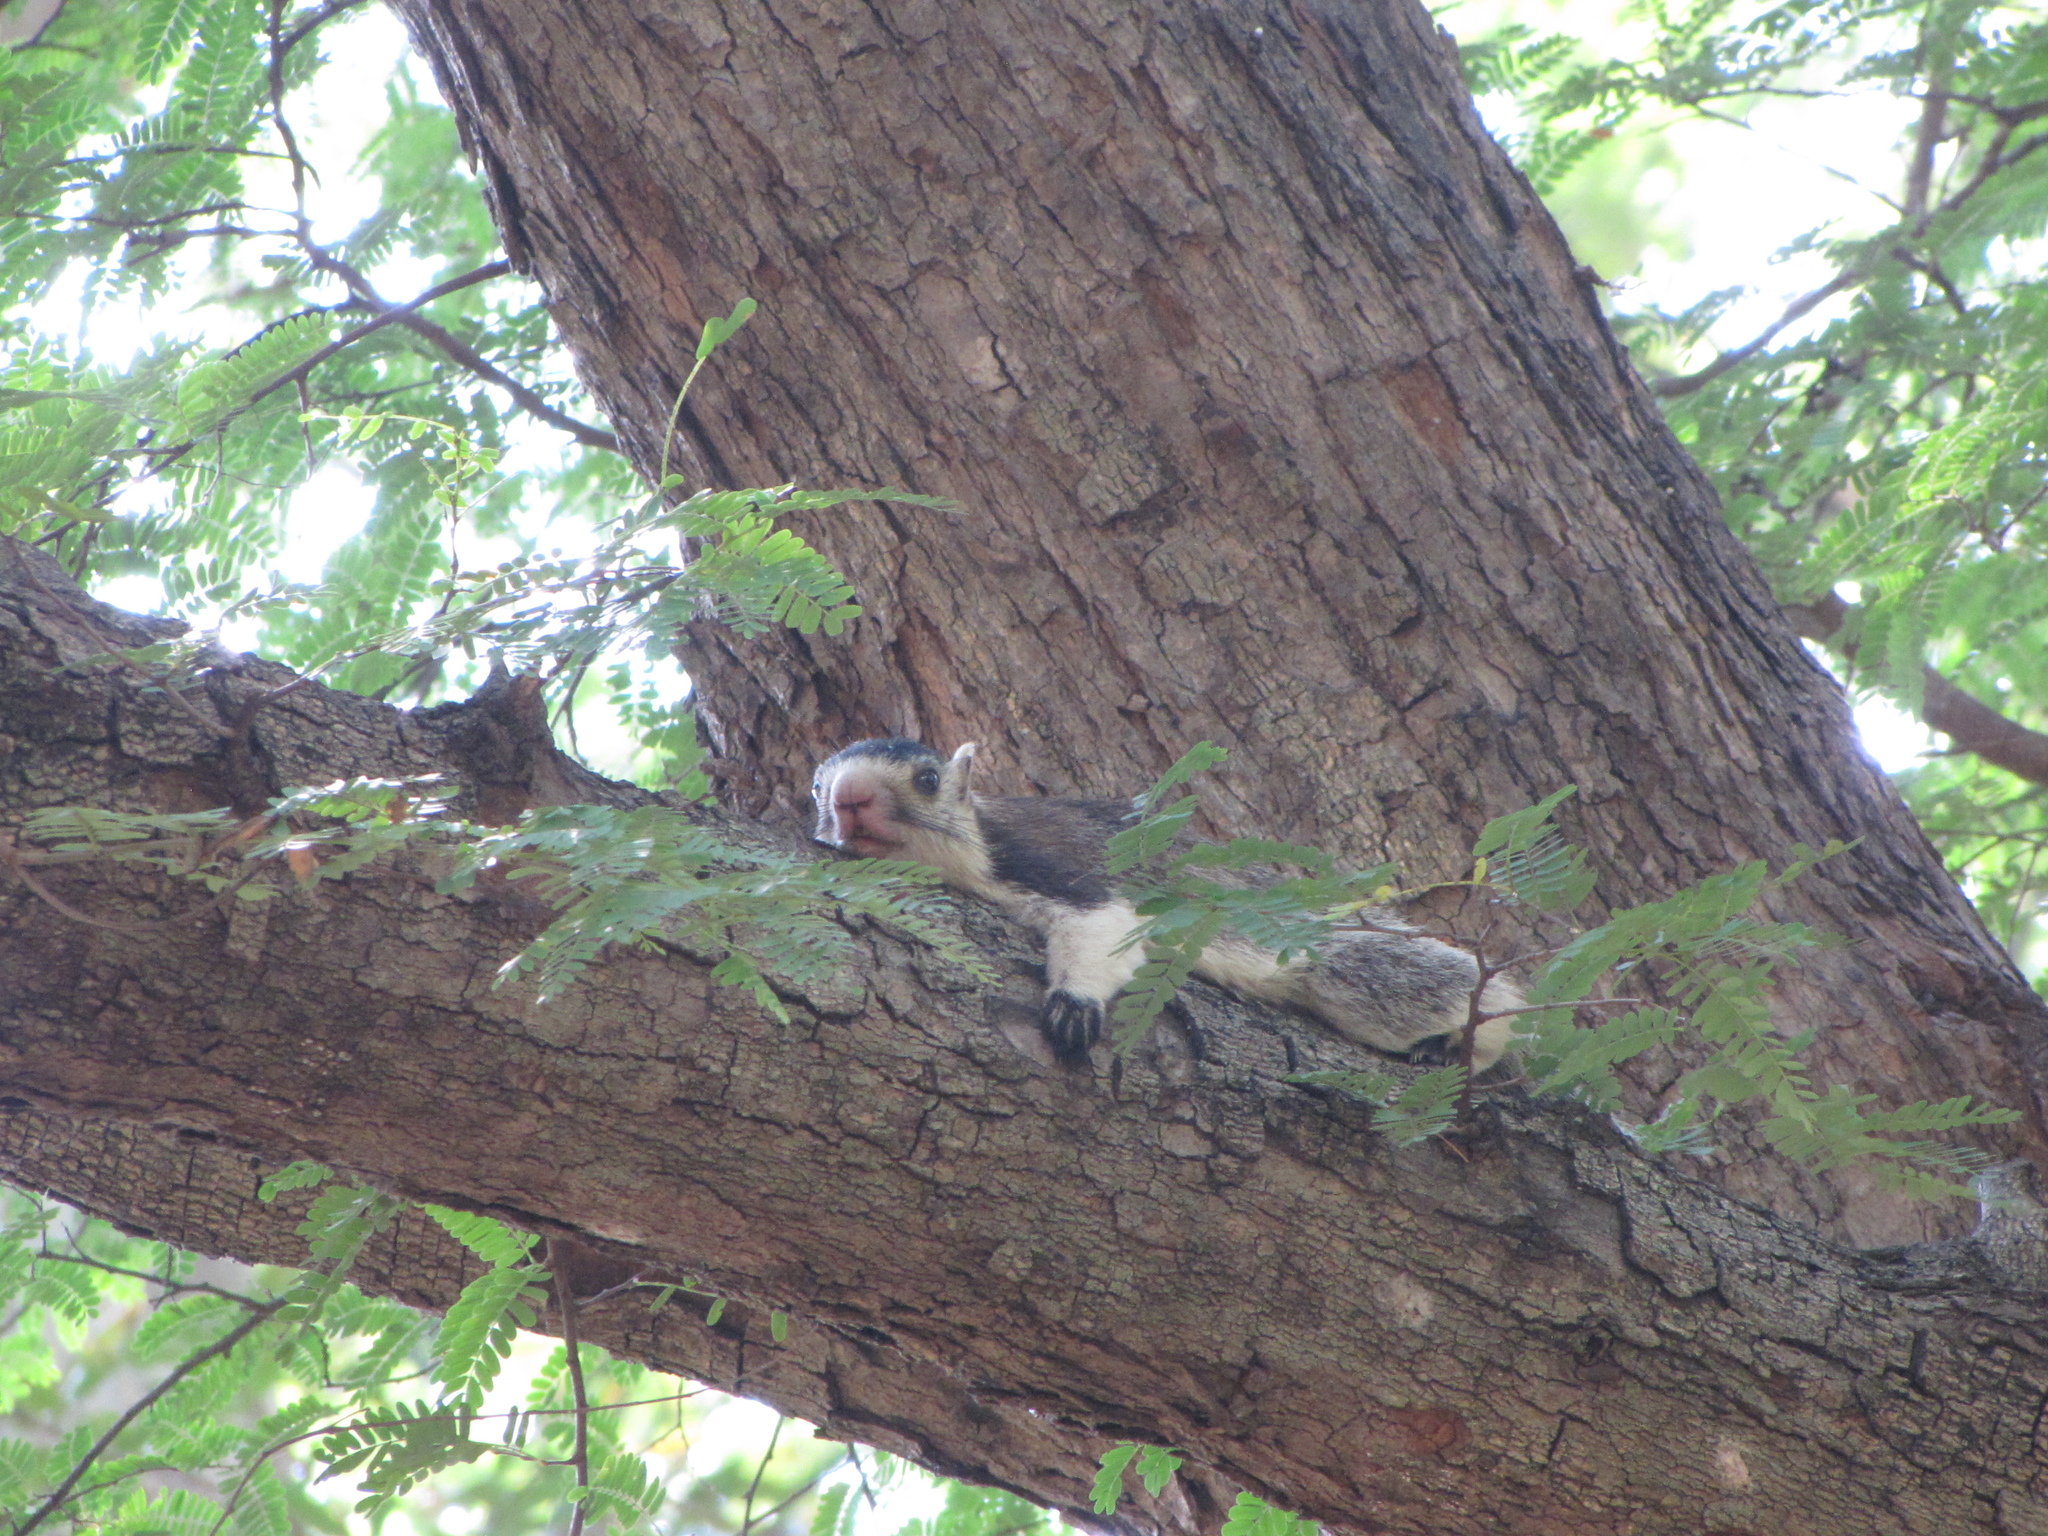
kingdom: Animalia
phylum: Chordata
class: Mammalia
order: Rodentia
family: Sciuridae
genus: Ratufa
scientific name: Ratufa macroura
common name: Sri lankan giant squirrel
